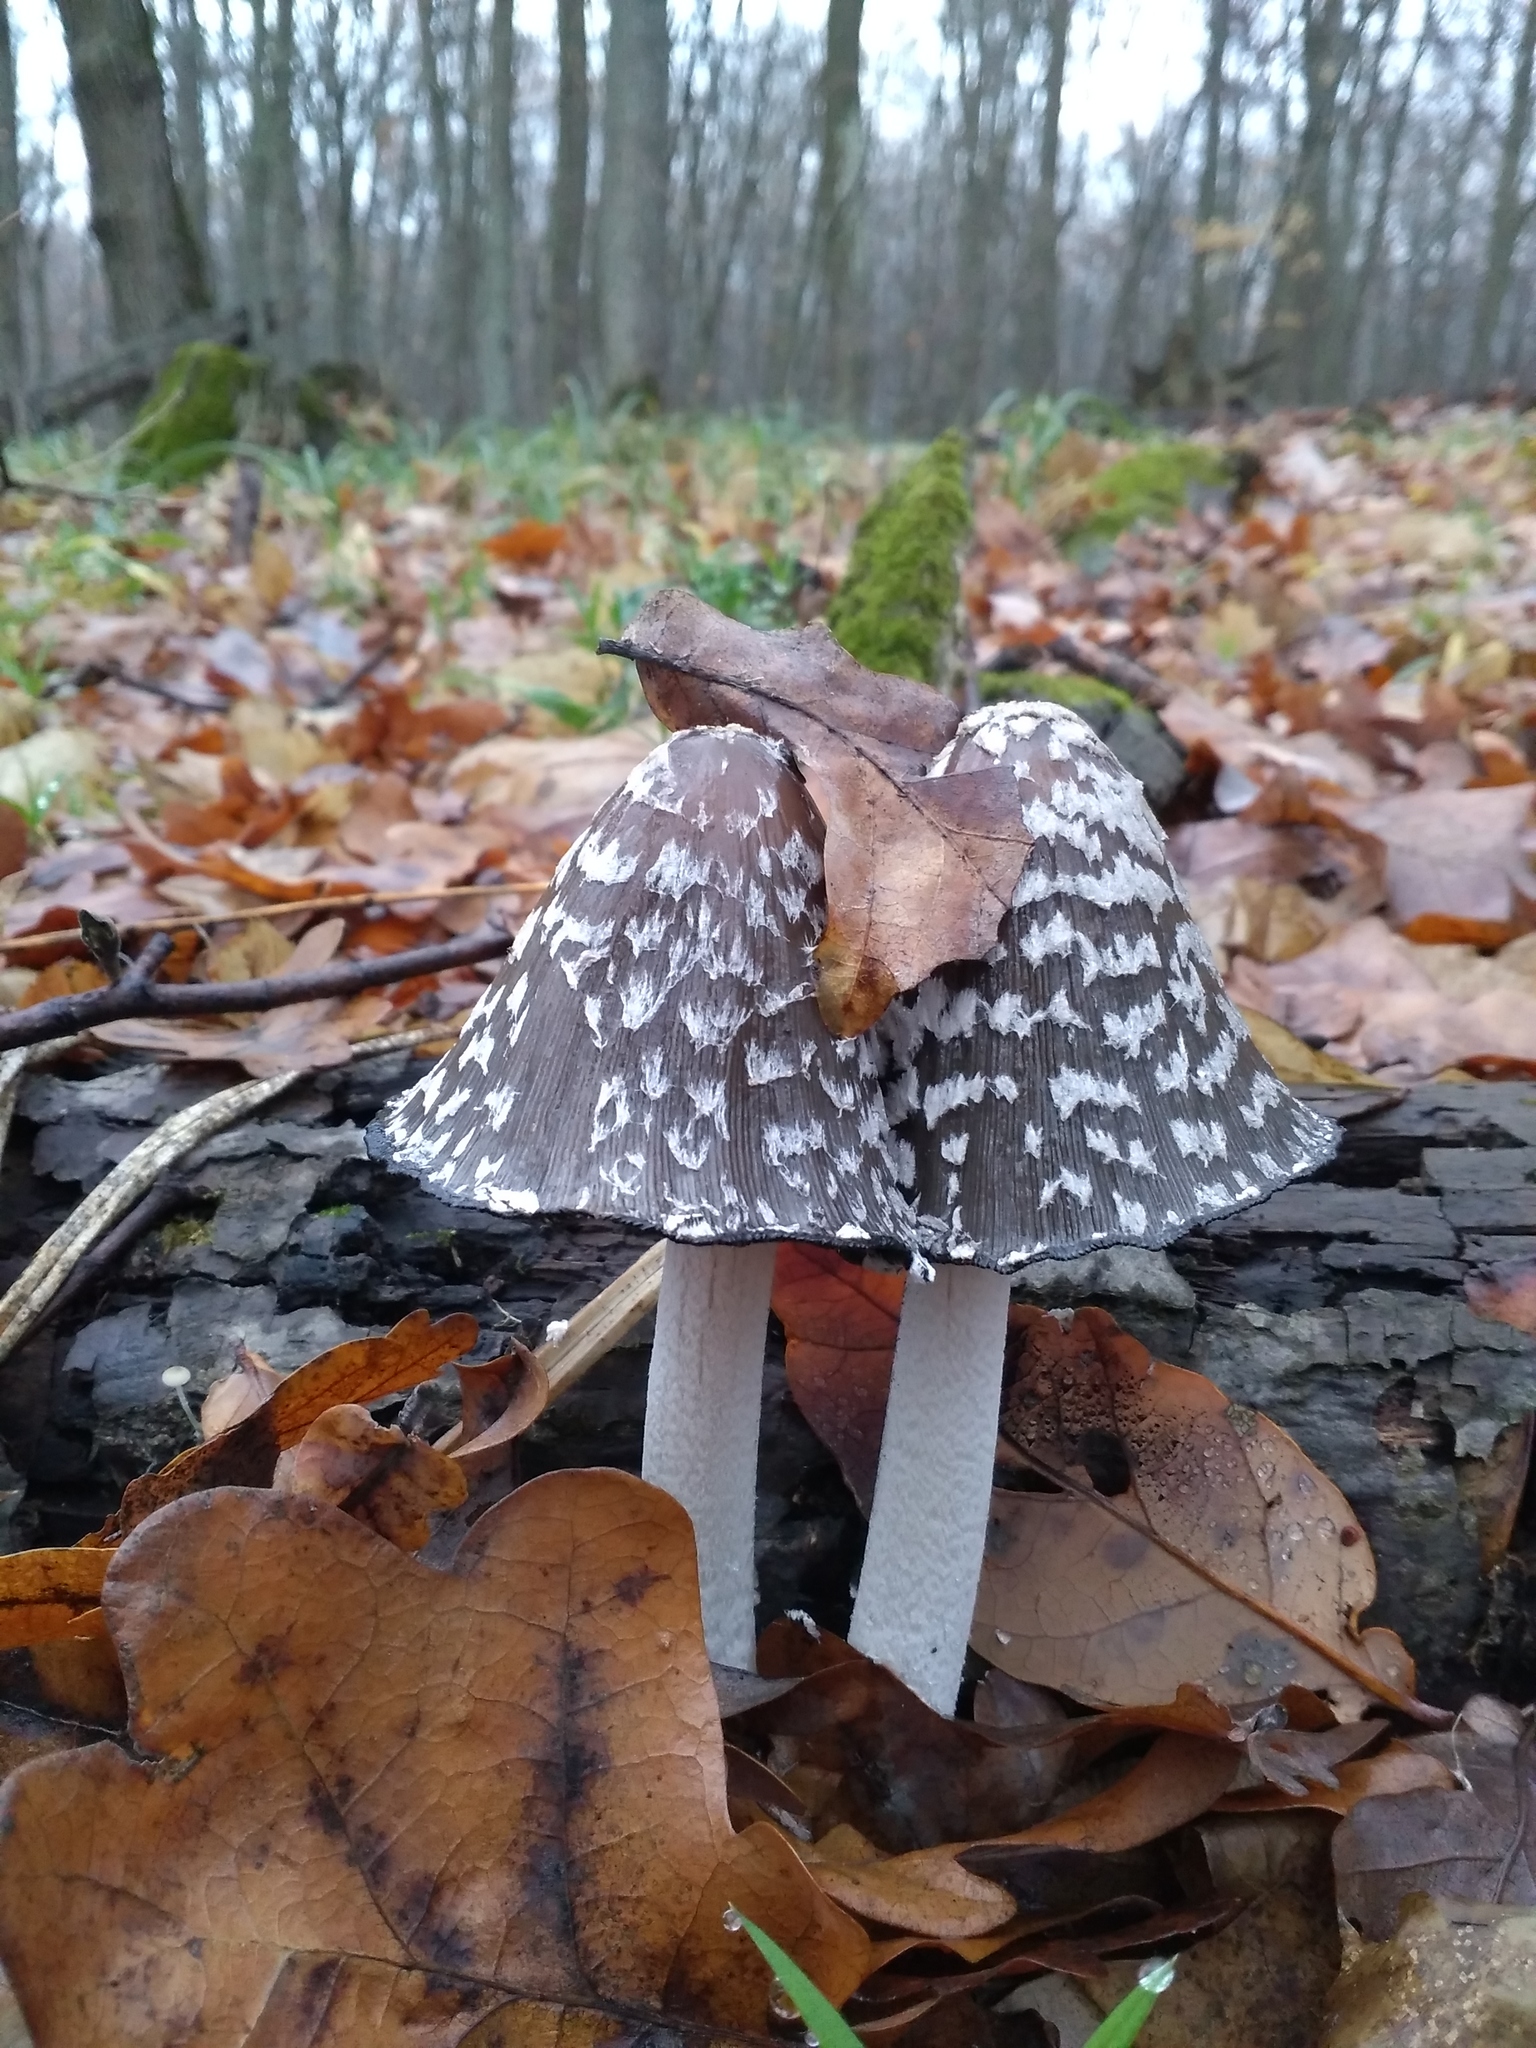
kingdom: Fungi
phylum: Basidiomycota
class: Agaricomycetes
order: Agaricales
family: Psathyrellaceae
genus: Coprinopsis
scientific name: Coprinopsis picacea
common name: Magpie inkcap
